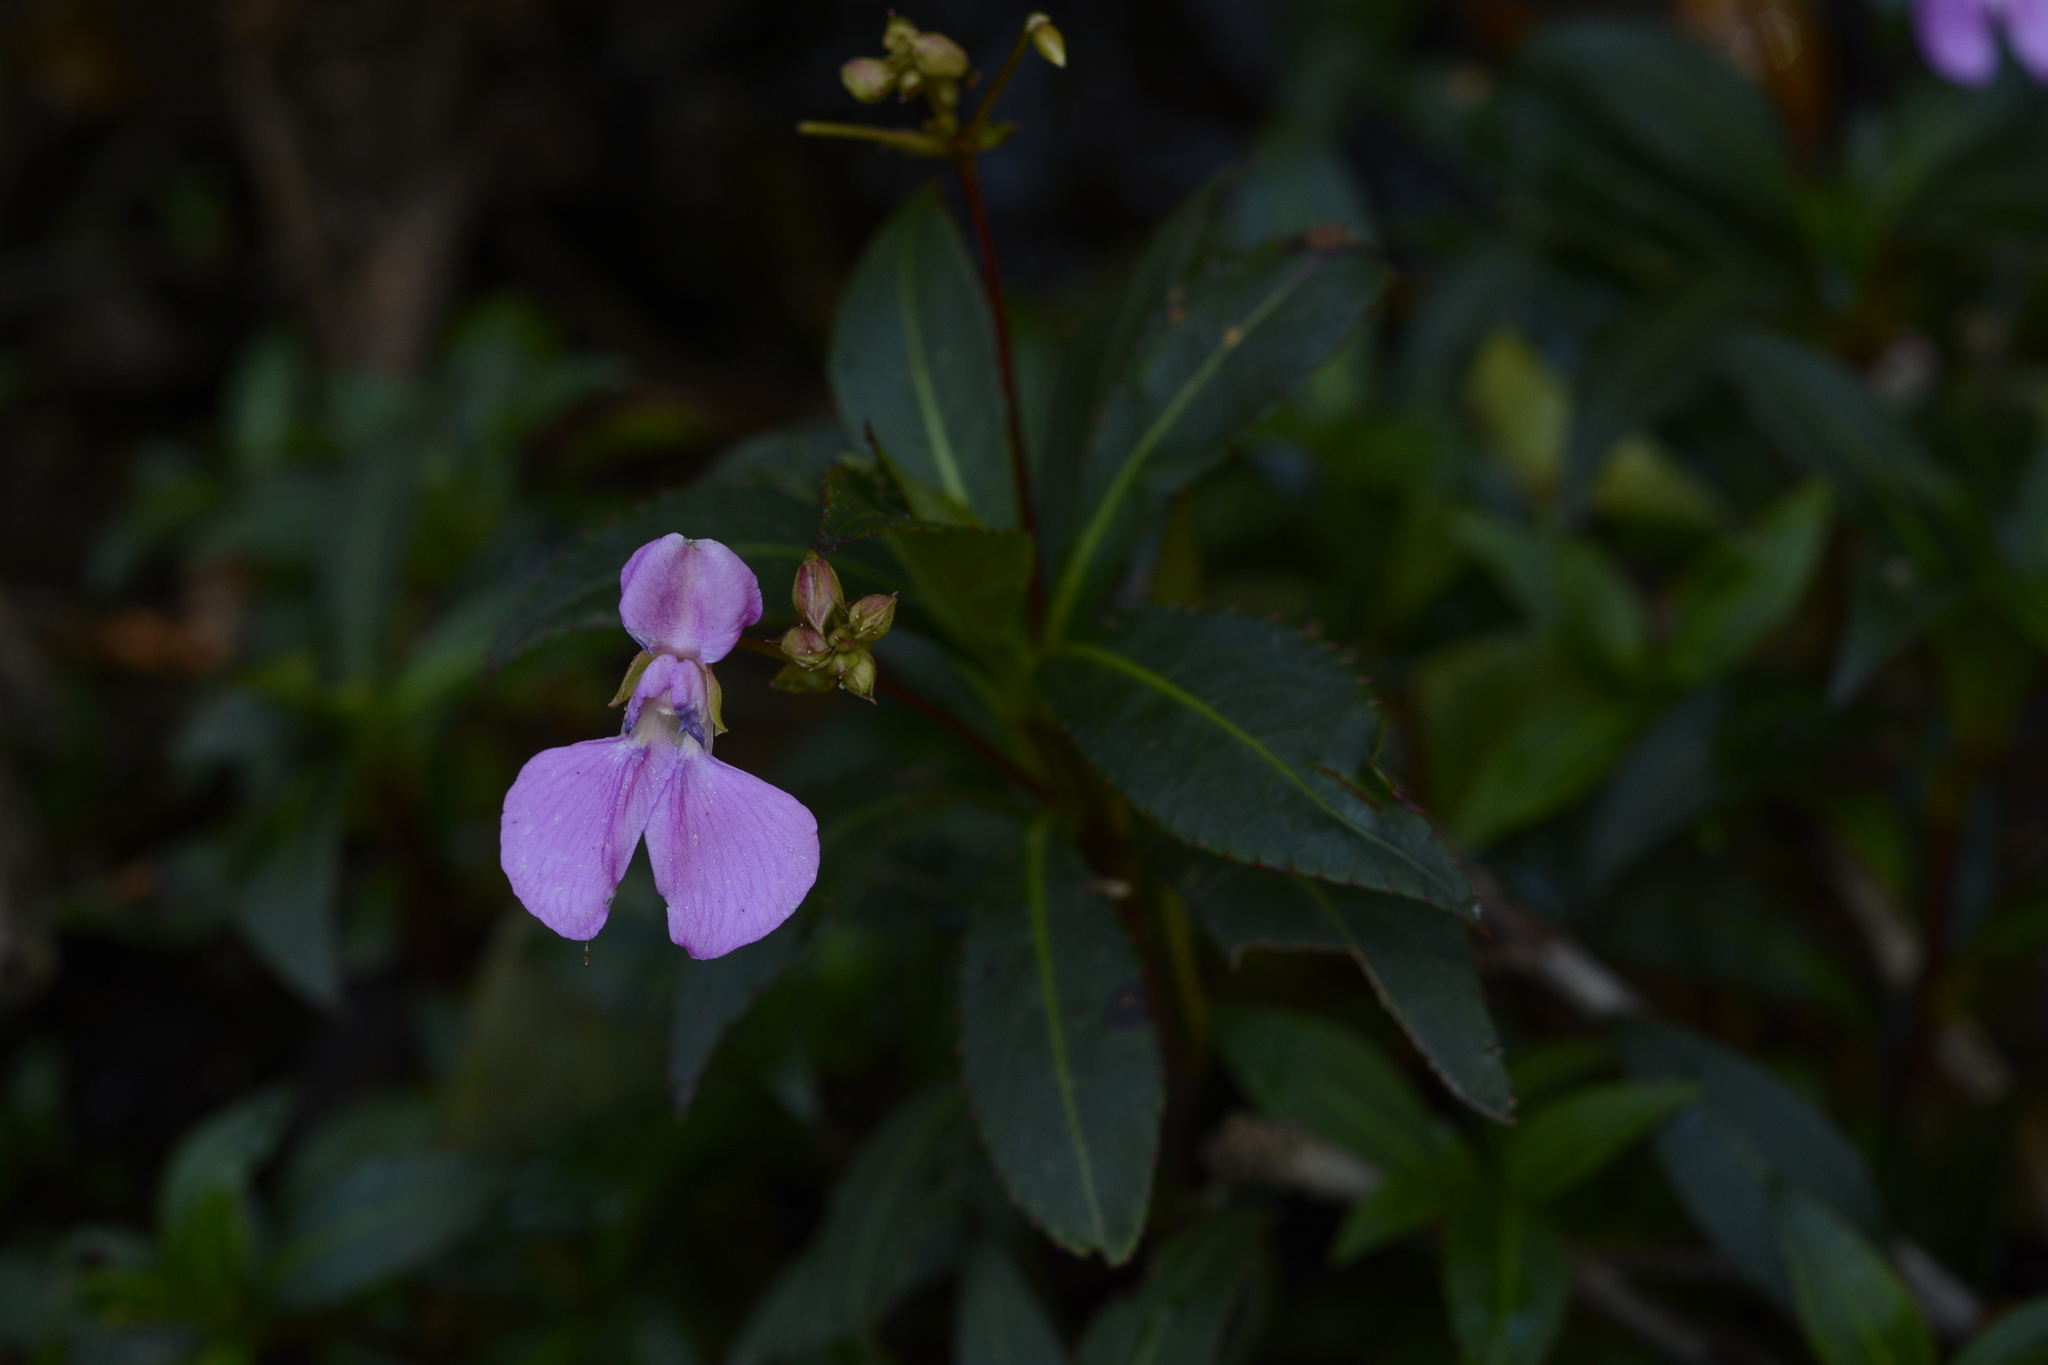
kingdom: Plantae
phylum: Tracheophyta
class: Magnoliopsida
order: Ericales
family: Balsaminaceae
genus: Impatiens
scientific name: Impatiens tangachee
